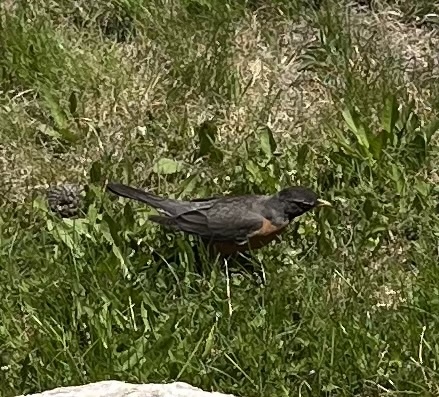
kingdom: Animalia
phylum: Chordata
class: Aves
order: Passeriformes
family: Turdidae
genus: Turdus
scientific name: Turdus migratorius
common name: American robin
